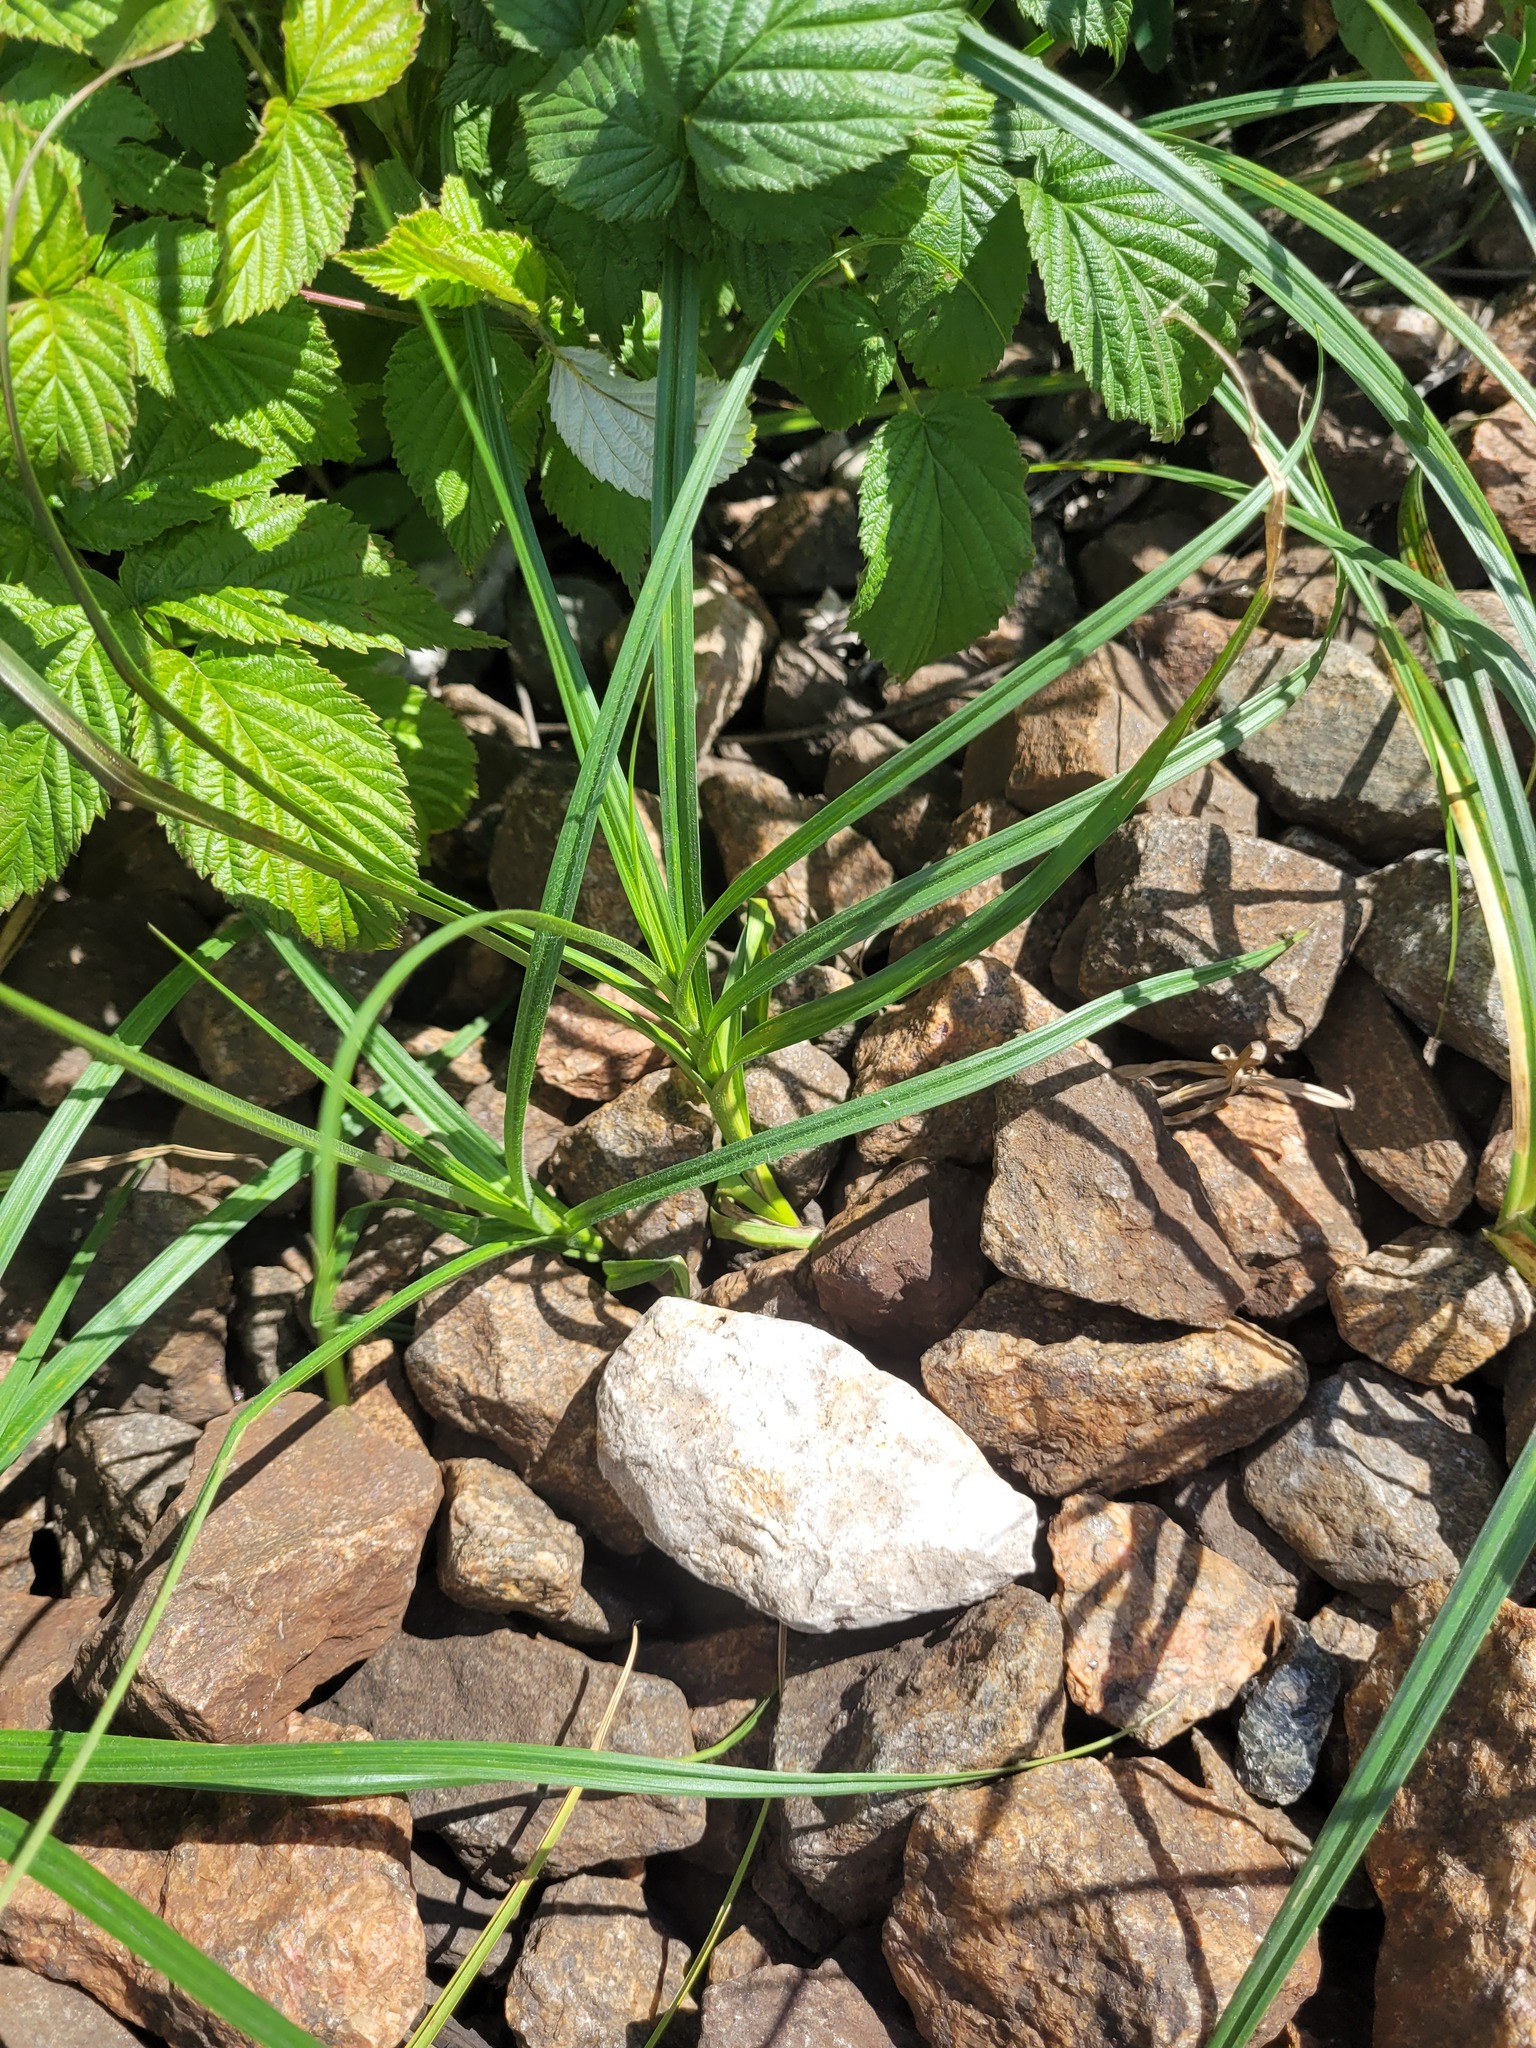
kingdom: Plantae
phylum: Tracheophyta
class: Liliopsida
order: Poales
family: Cyperaceae
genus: Carex
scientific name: Carex hirta
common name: Hairy sedge
